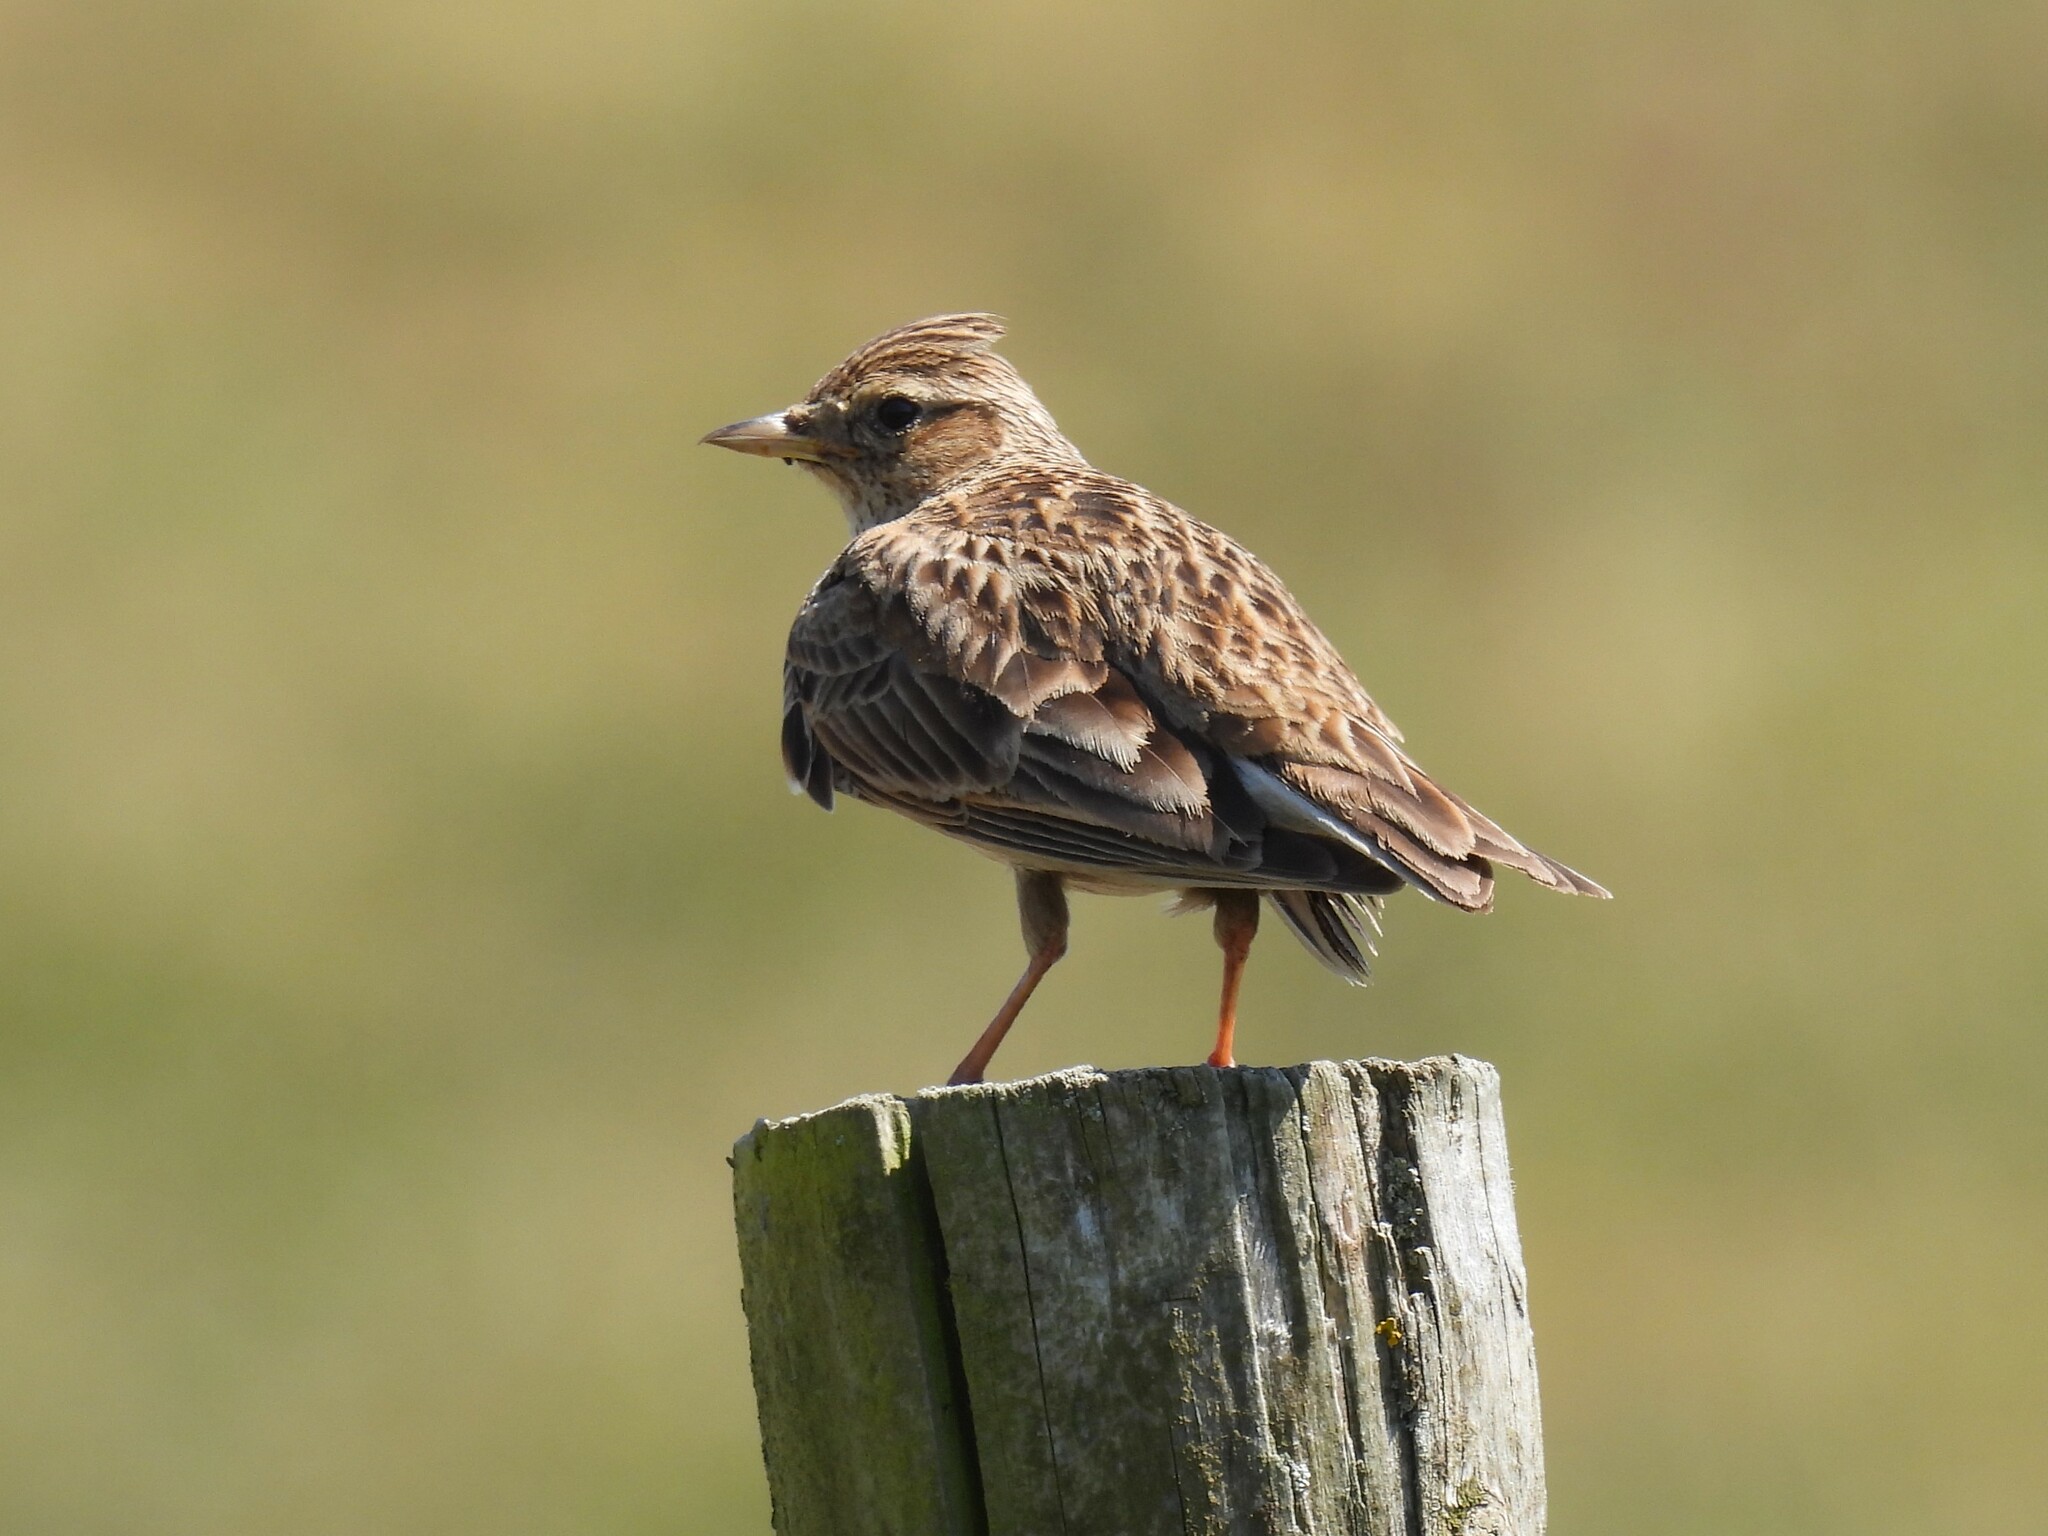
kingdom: Animalia
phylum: Chordata
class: Aves
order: Passeriformes
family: Alaudidae
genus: Alauda
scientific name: Alauda arvensis
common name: Eurasian skylark
